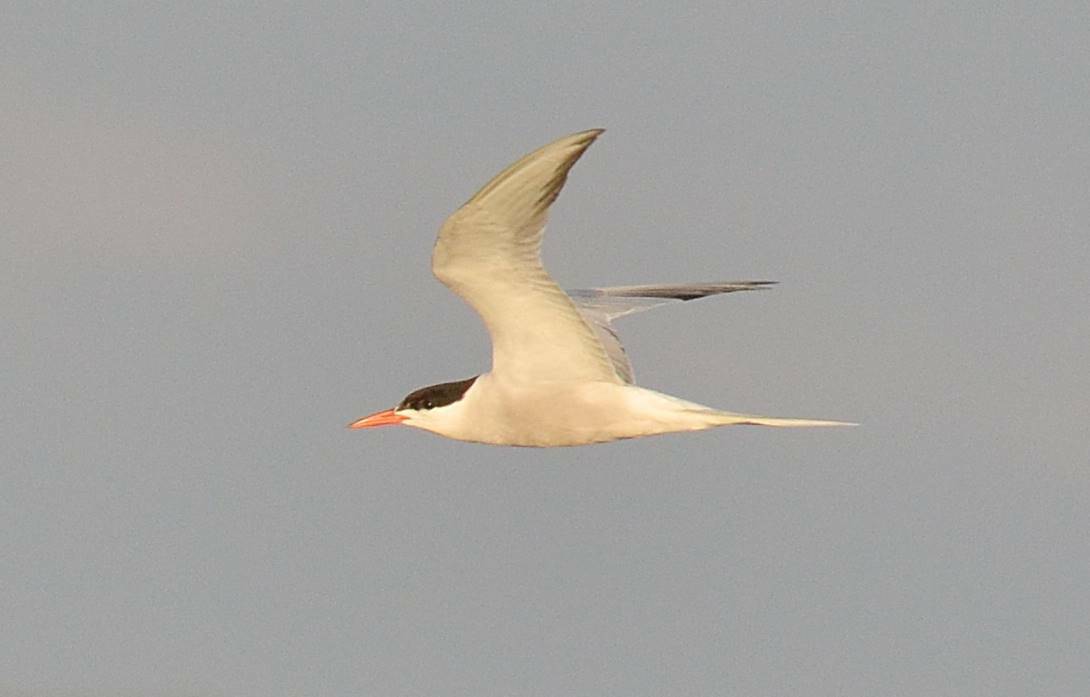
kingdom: Animalia
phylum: Chordata
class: Aves
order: Charadriiformes
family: Laridae
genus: Sterna
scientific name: Sterna hirundo
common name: Common tern
